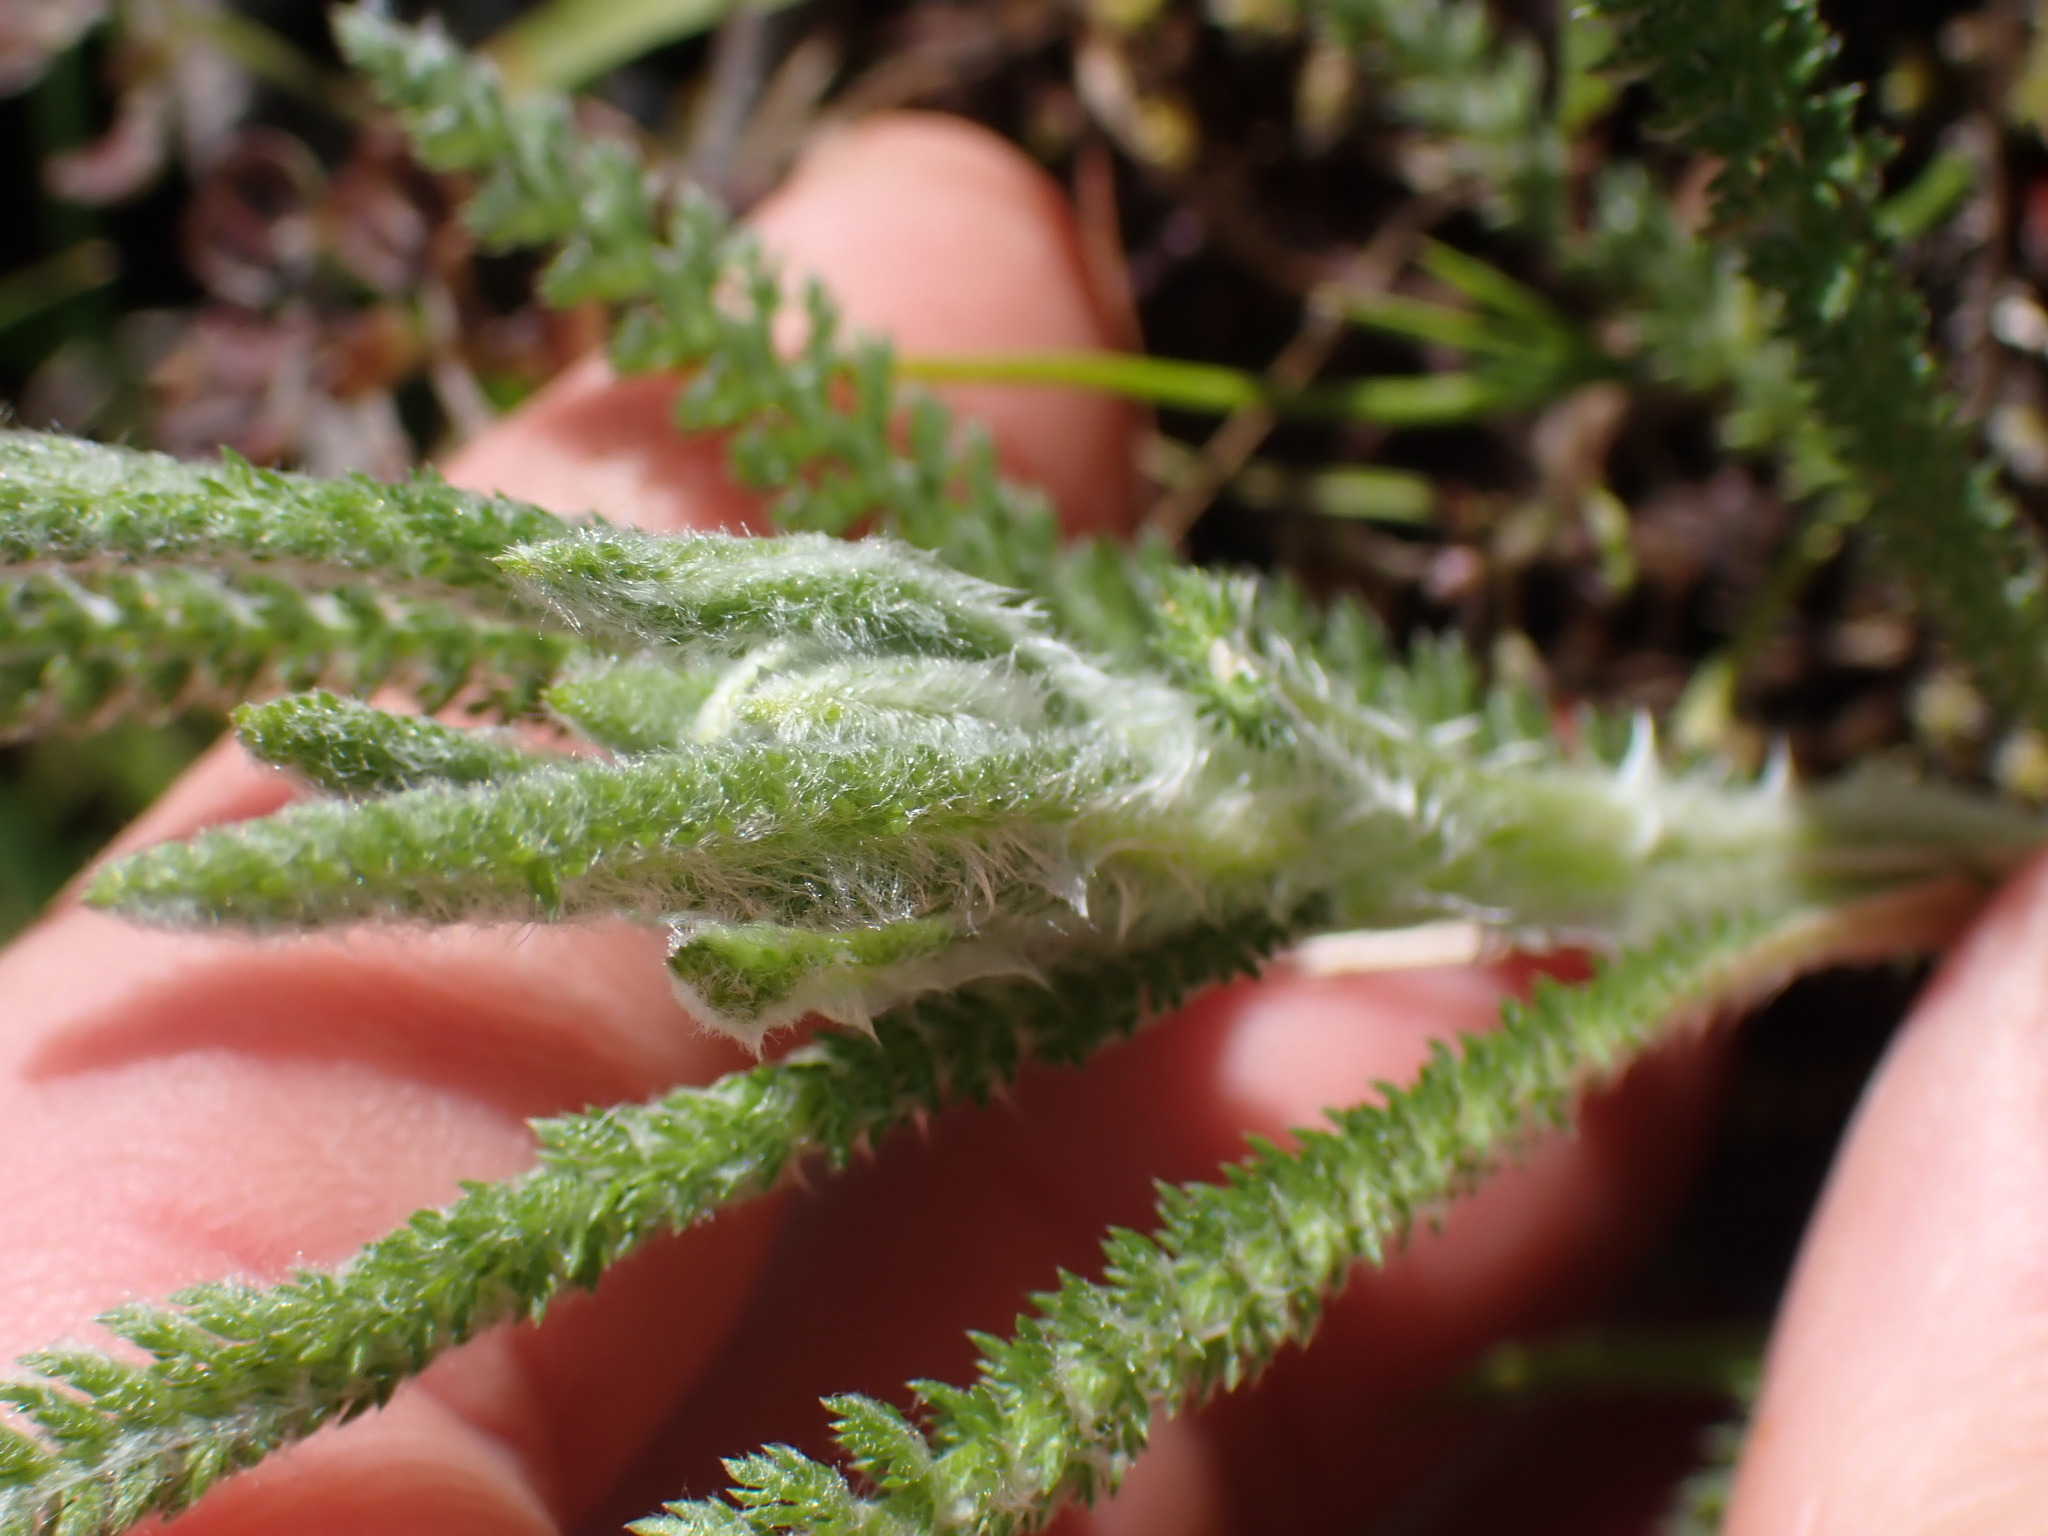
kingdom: Plantae
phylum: Tracheophyta
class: Magnoliopsida
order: Asterales
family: Asteraceae
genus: Achillea
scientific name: Achillea millefolium
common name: Yarrow
